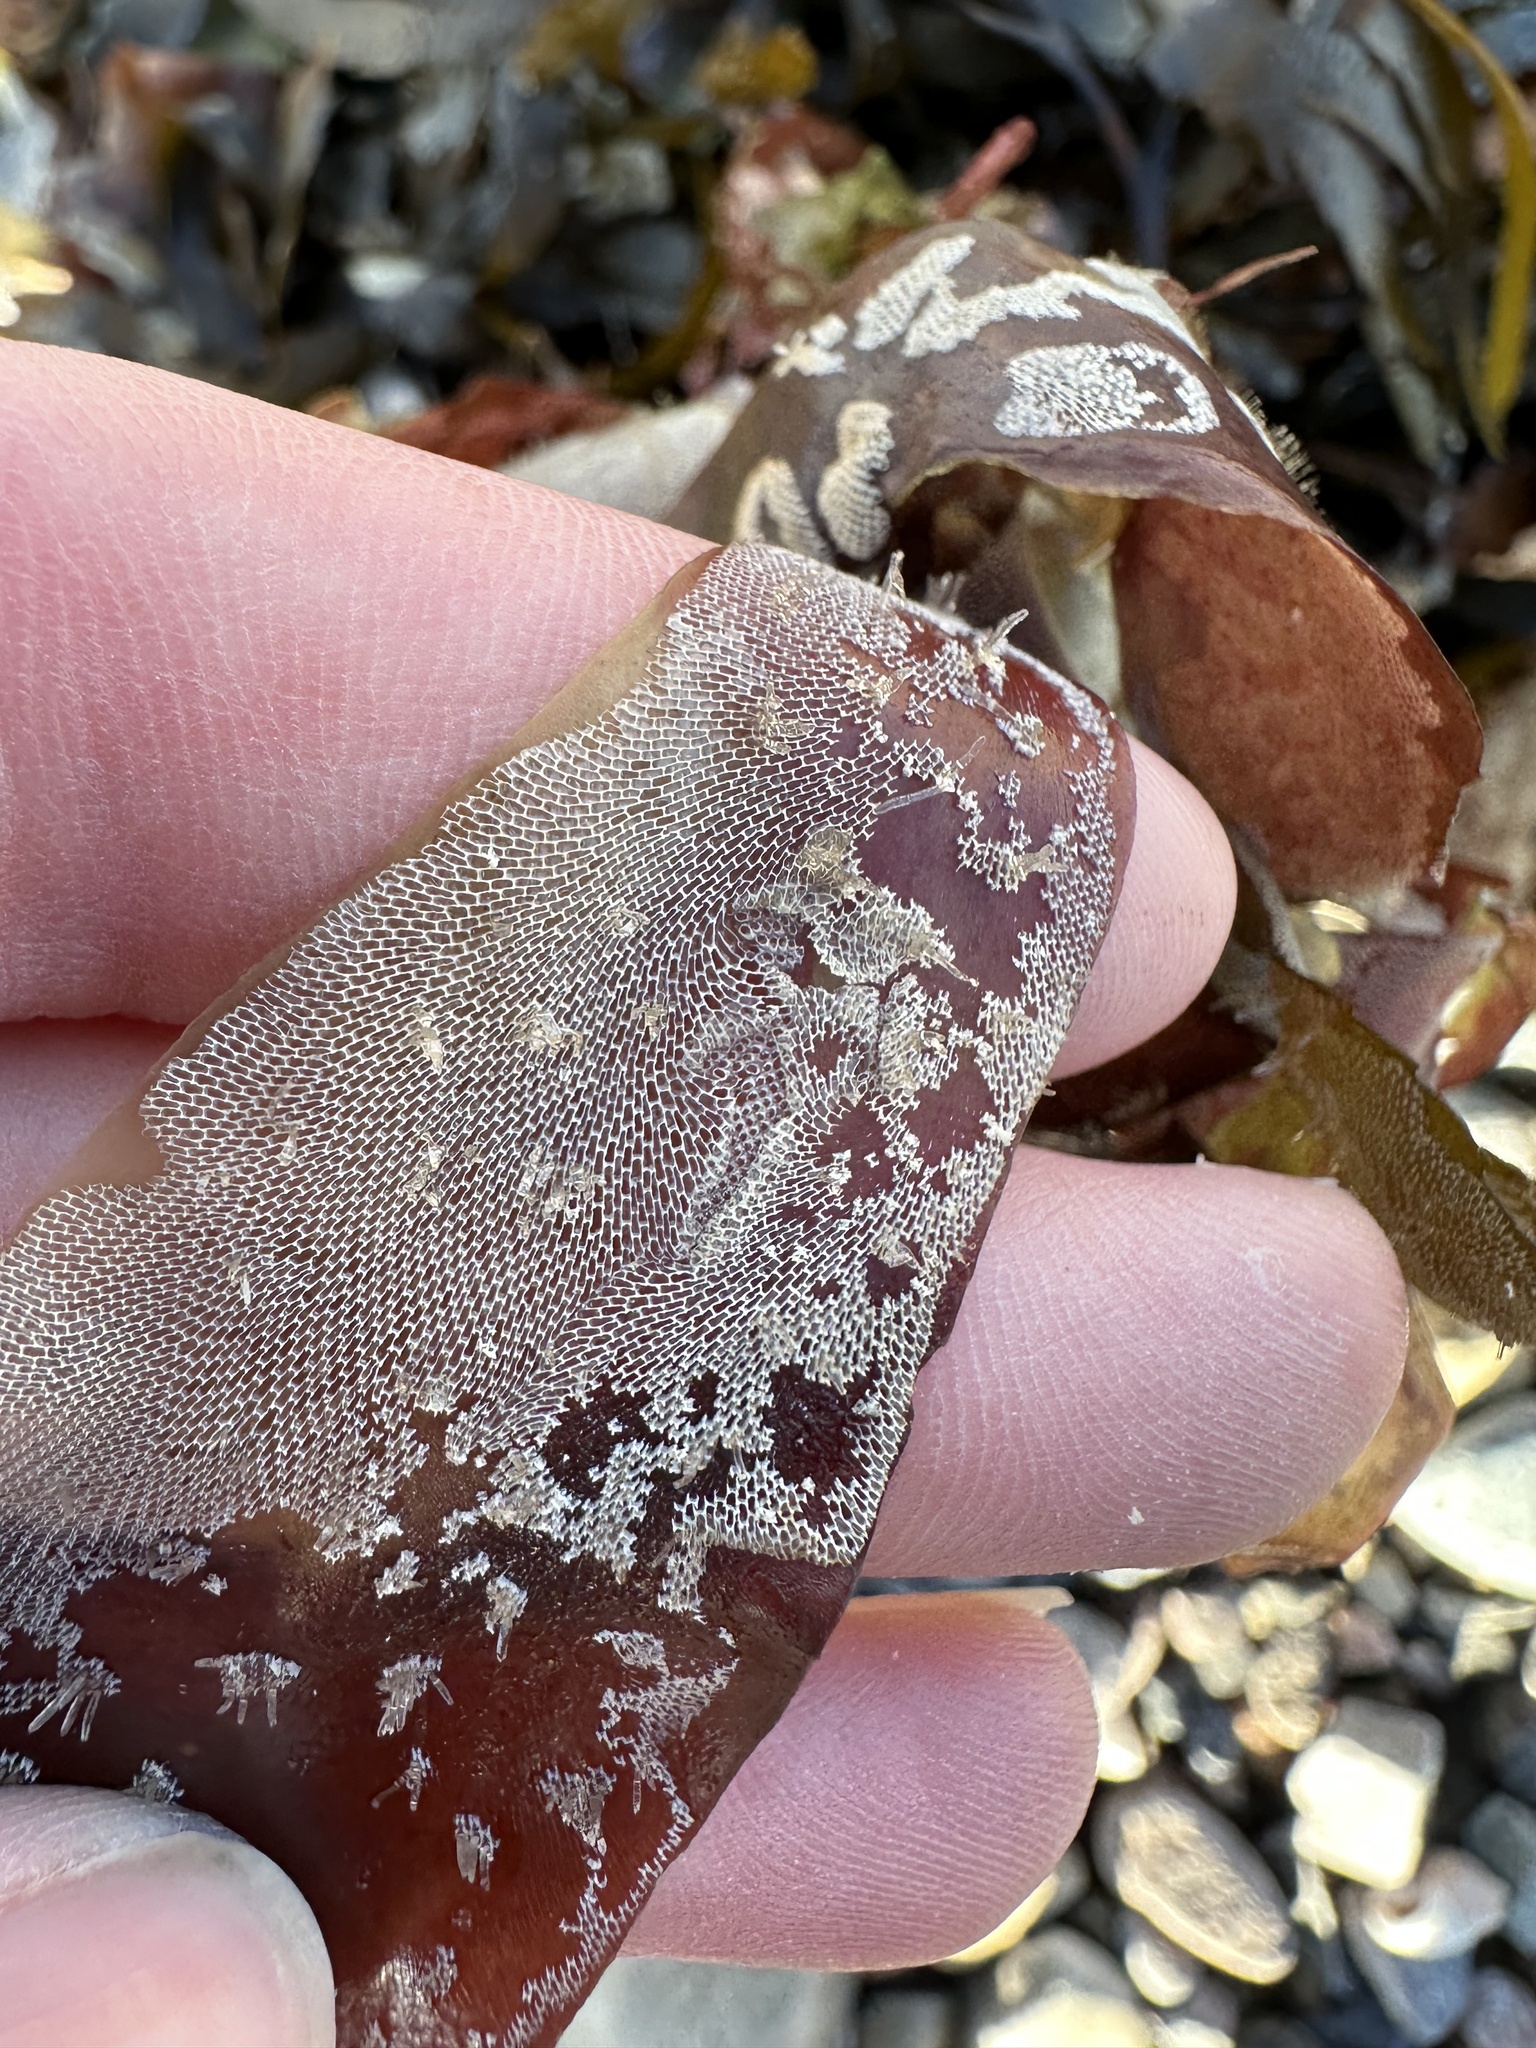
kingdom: Animalia
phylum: Bryozoa
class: Gymnolaemata
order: Cheilostomatida
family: Membraniporidae
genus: Membranipora
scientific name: Membranipora membranacea
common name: Sea mat
